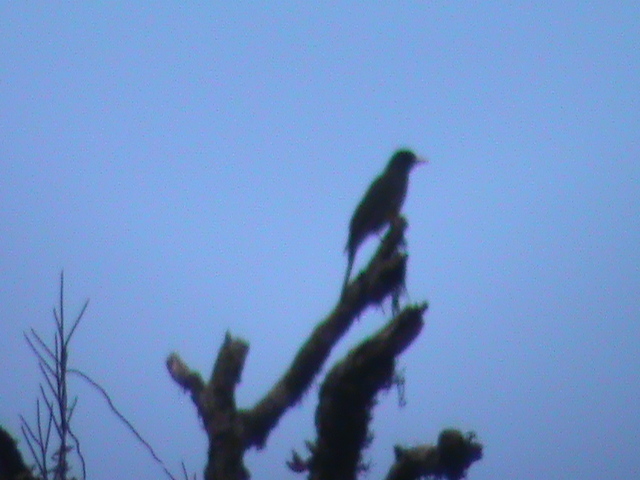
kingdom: Animalia
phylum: Chordata
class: Aves
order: Passeriformes
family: Pycnonotidae
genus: Hypsipetes
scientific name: Hypsipetes ganeesa
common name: Square-tailed bulbul
